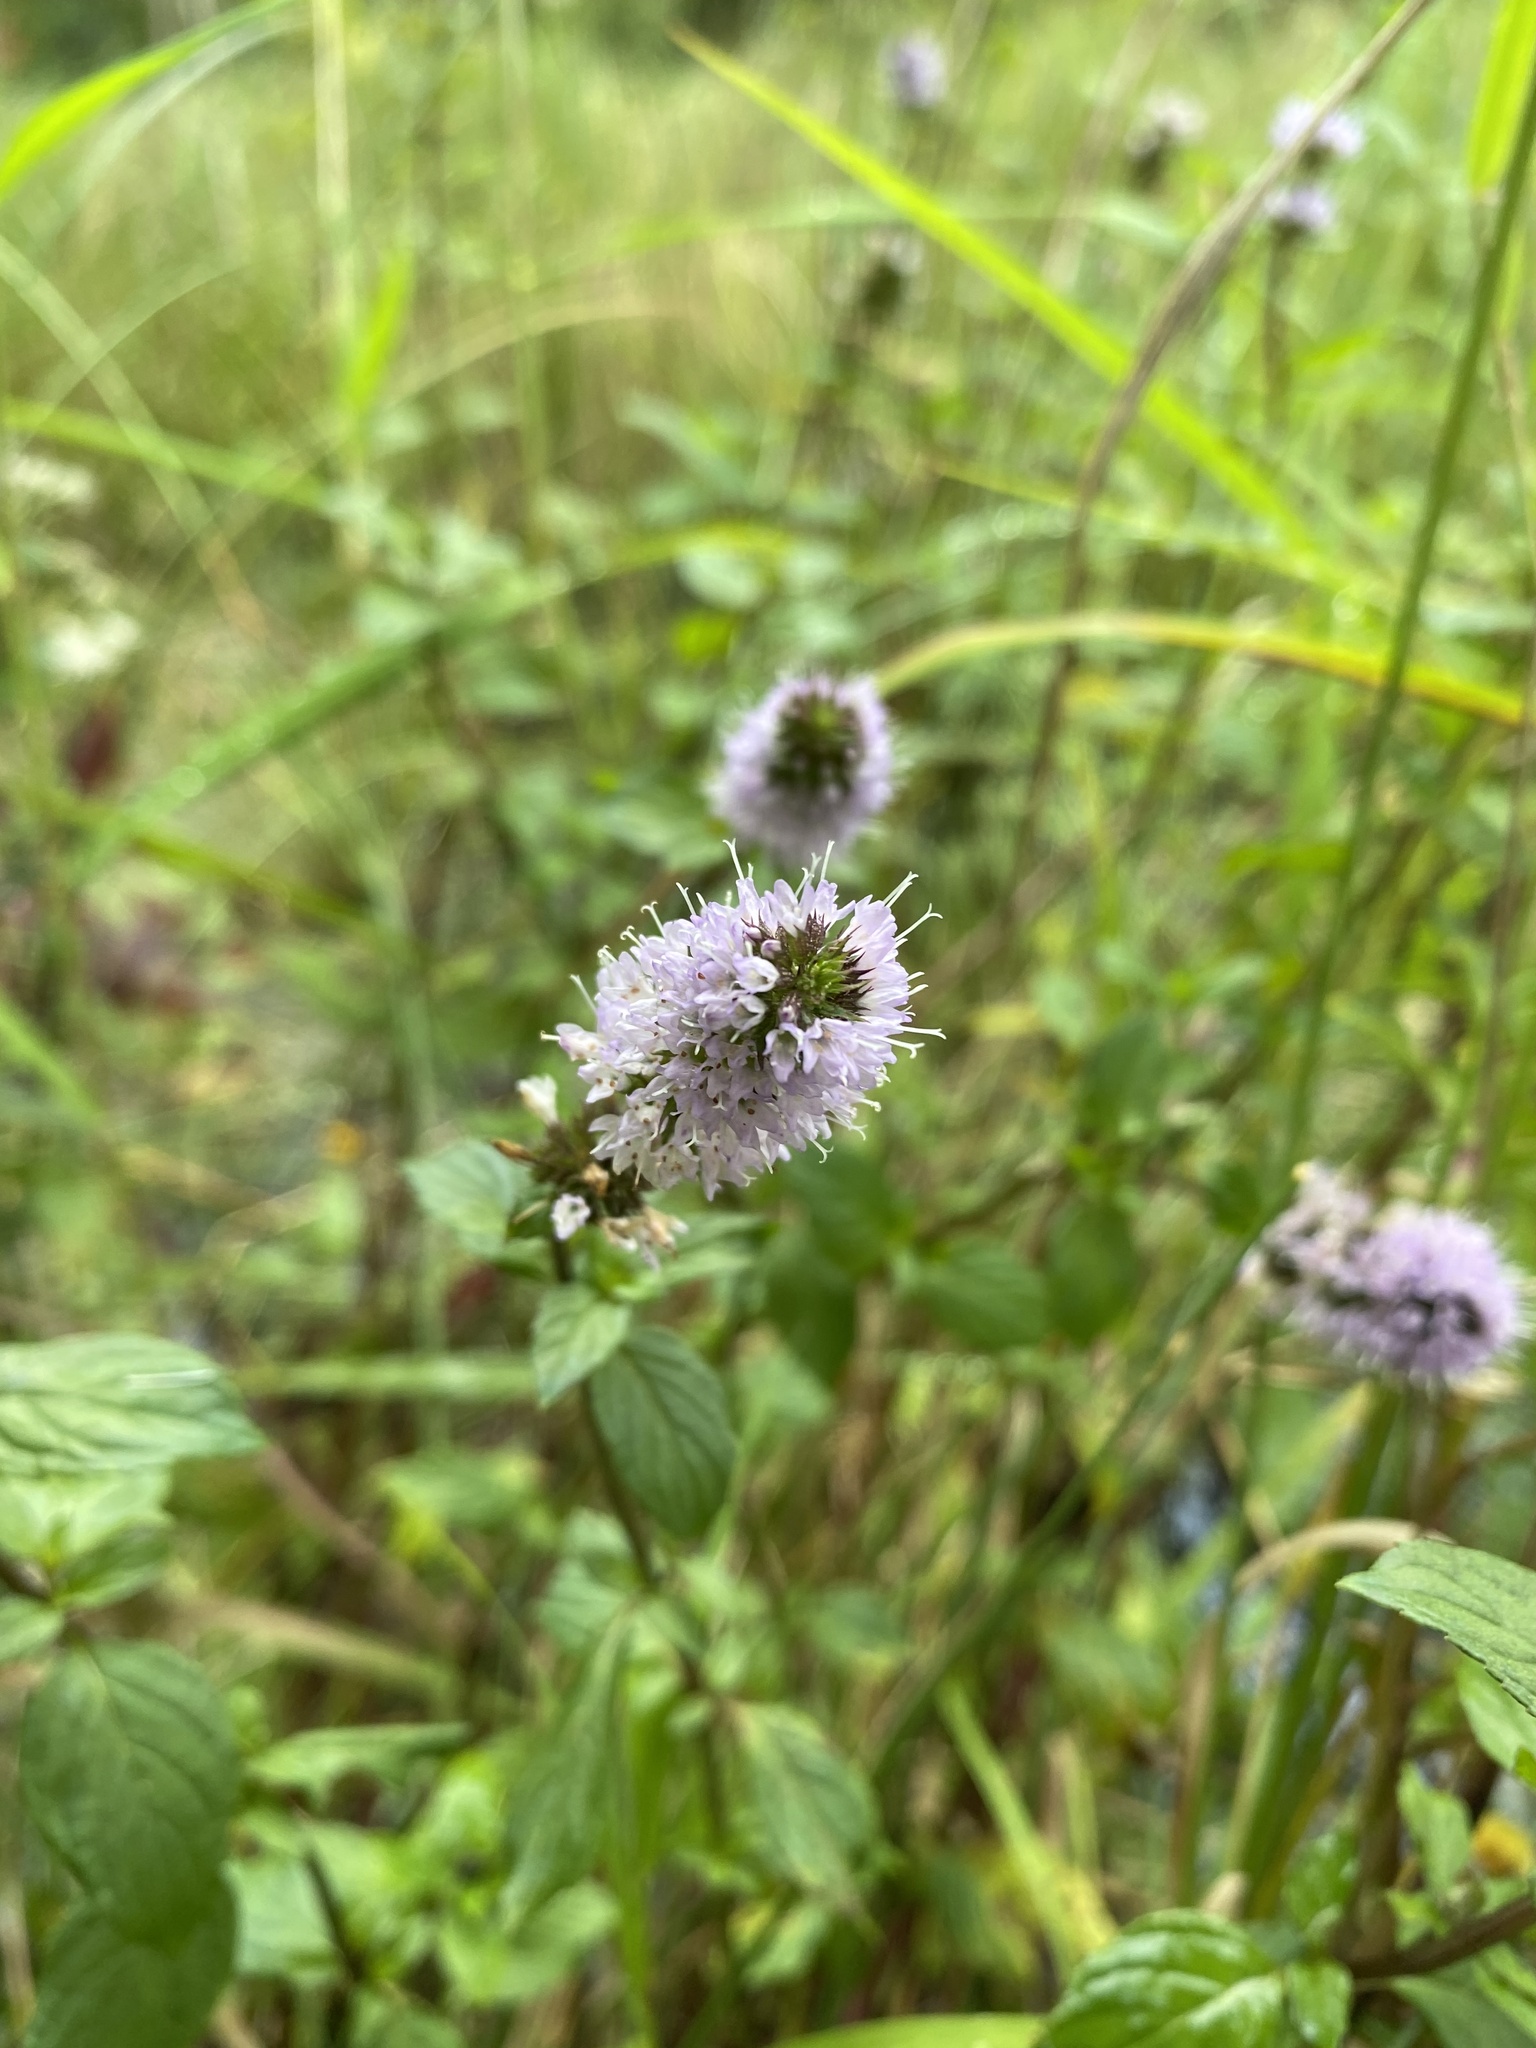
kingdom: Plantae
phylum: Tracheophyta
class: Magnoliopsida
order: Lamiales
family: Lamiaceae
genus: Mentha
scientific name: Mentha aquatica
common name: Water mint
